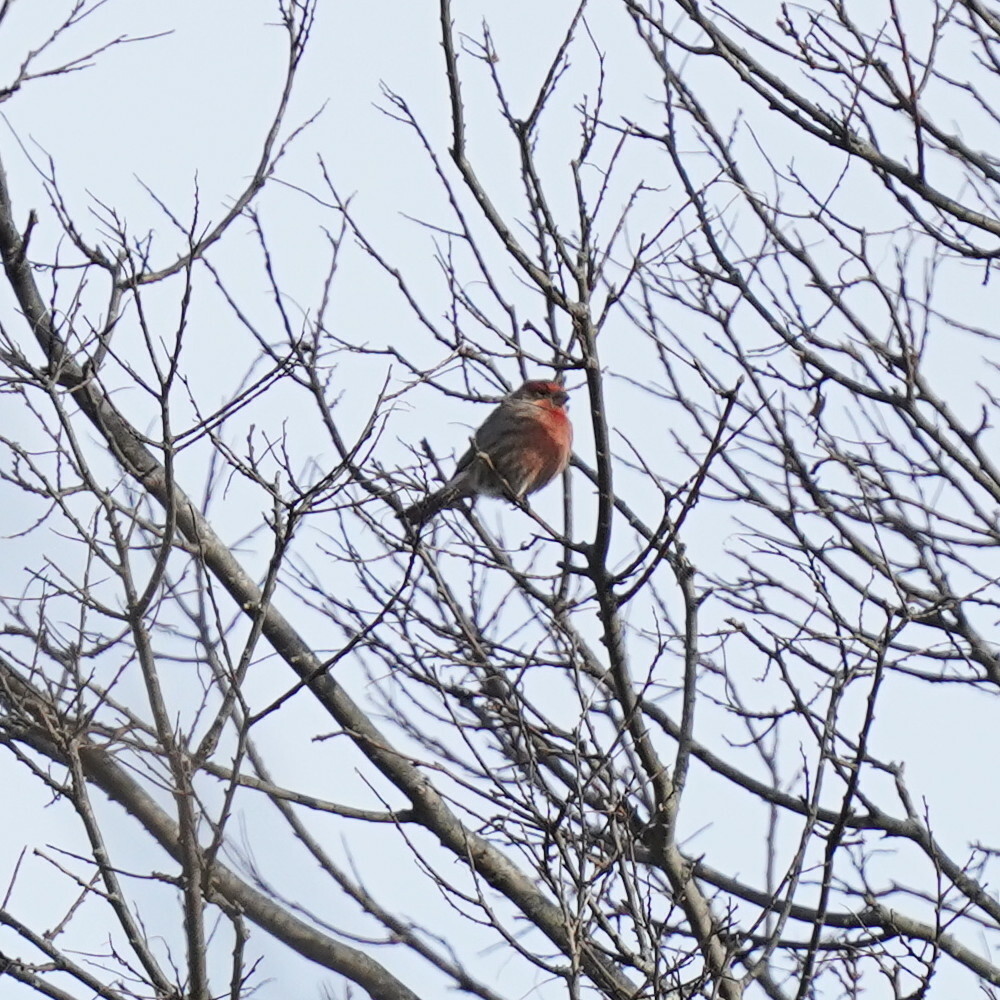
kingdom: Animalia
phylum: Chordata
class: Aves
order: Passeriformes
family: Fringillidae
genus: Haemorhous
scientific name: Haemorhous mexicanus
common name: House finch
